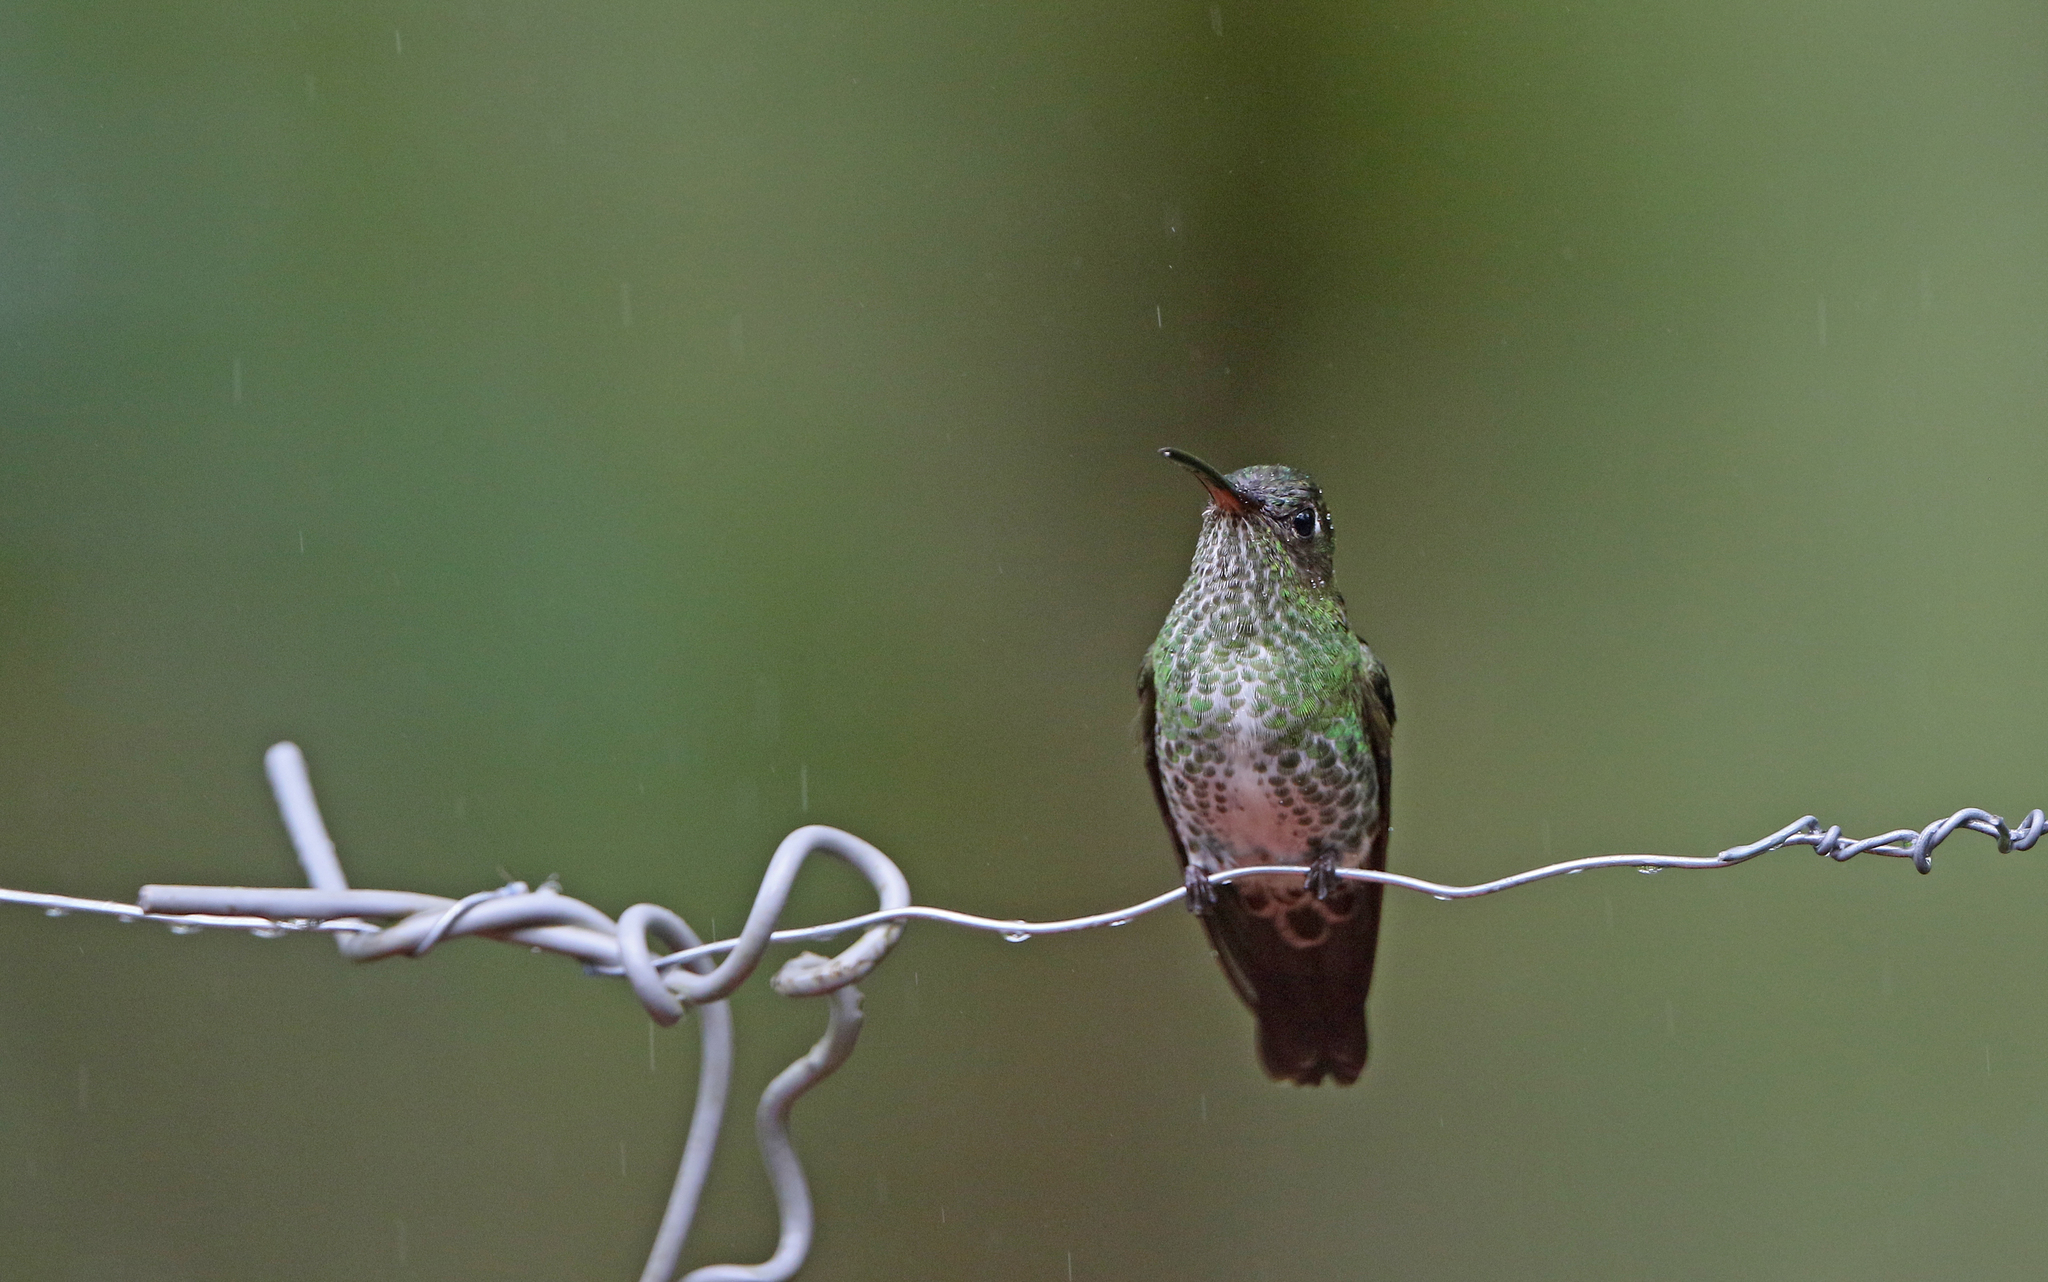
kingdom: Animalia
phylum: Chordata
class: Aves
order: Apodiformes
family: Trochilidae
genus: Taphrospilus
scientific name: Taphrospilus hypostictus
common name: Many-spotted hummingbird
